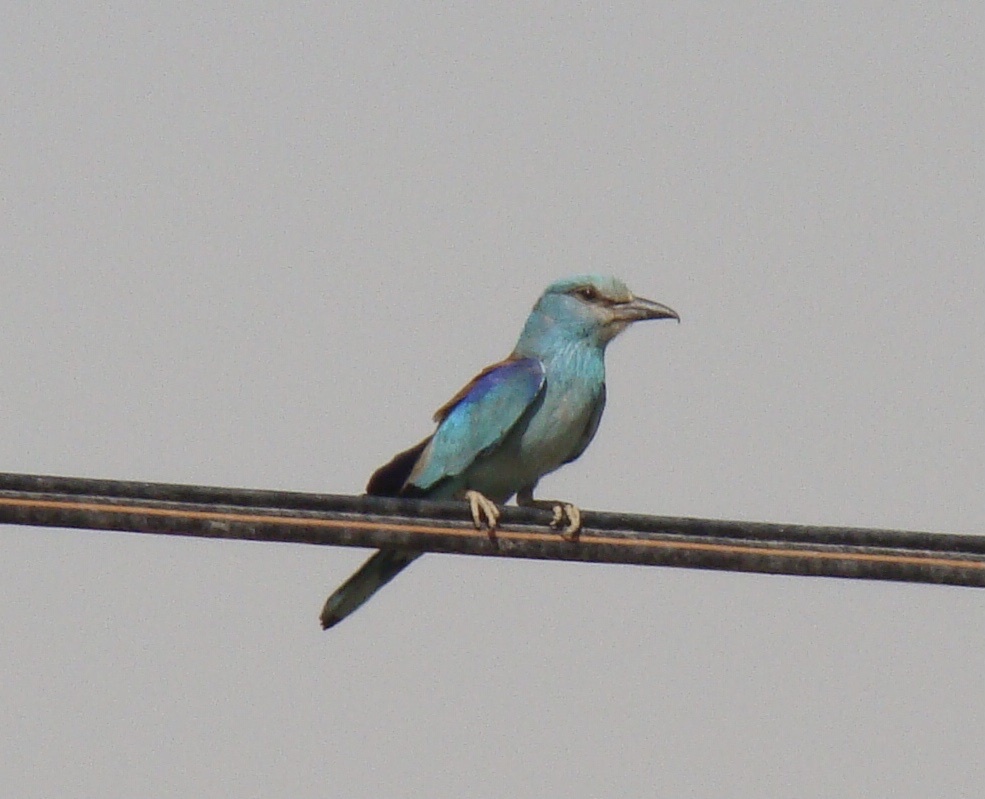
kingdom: Animalia
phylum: Chordata
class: Aves
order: Coraciiformes
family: Coraciidae
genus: Coracias
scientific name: Coracias garrulus
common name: European roller
